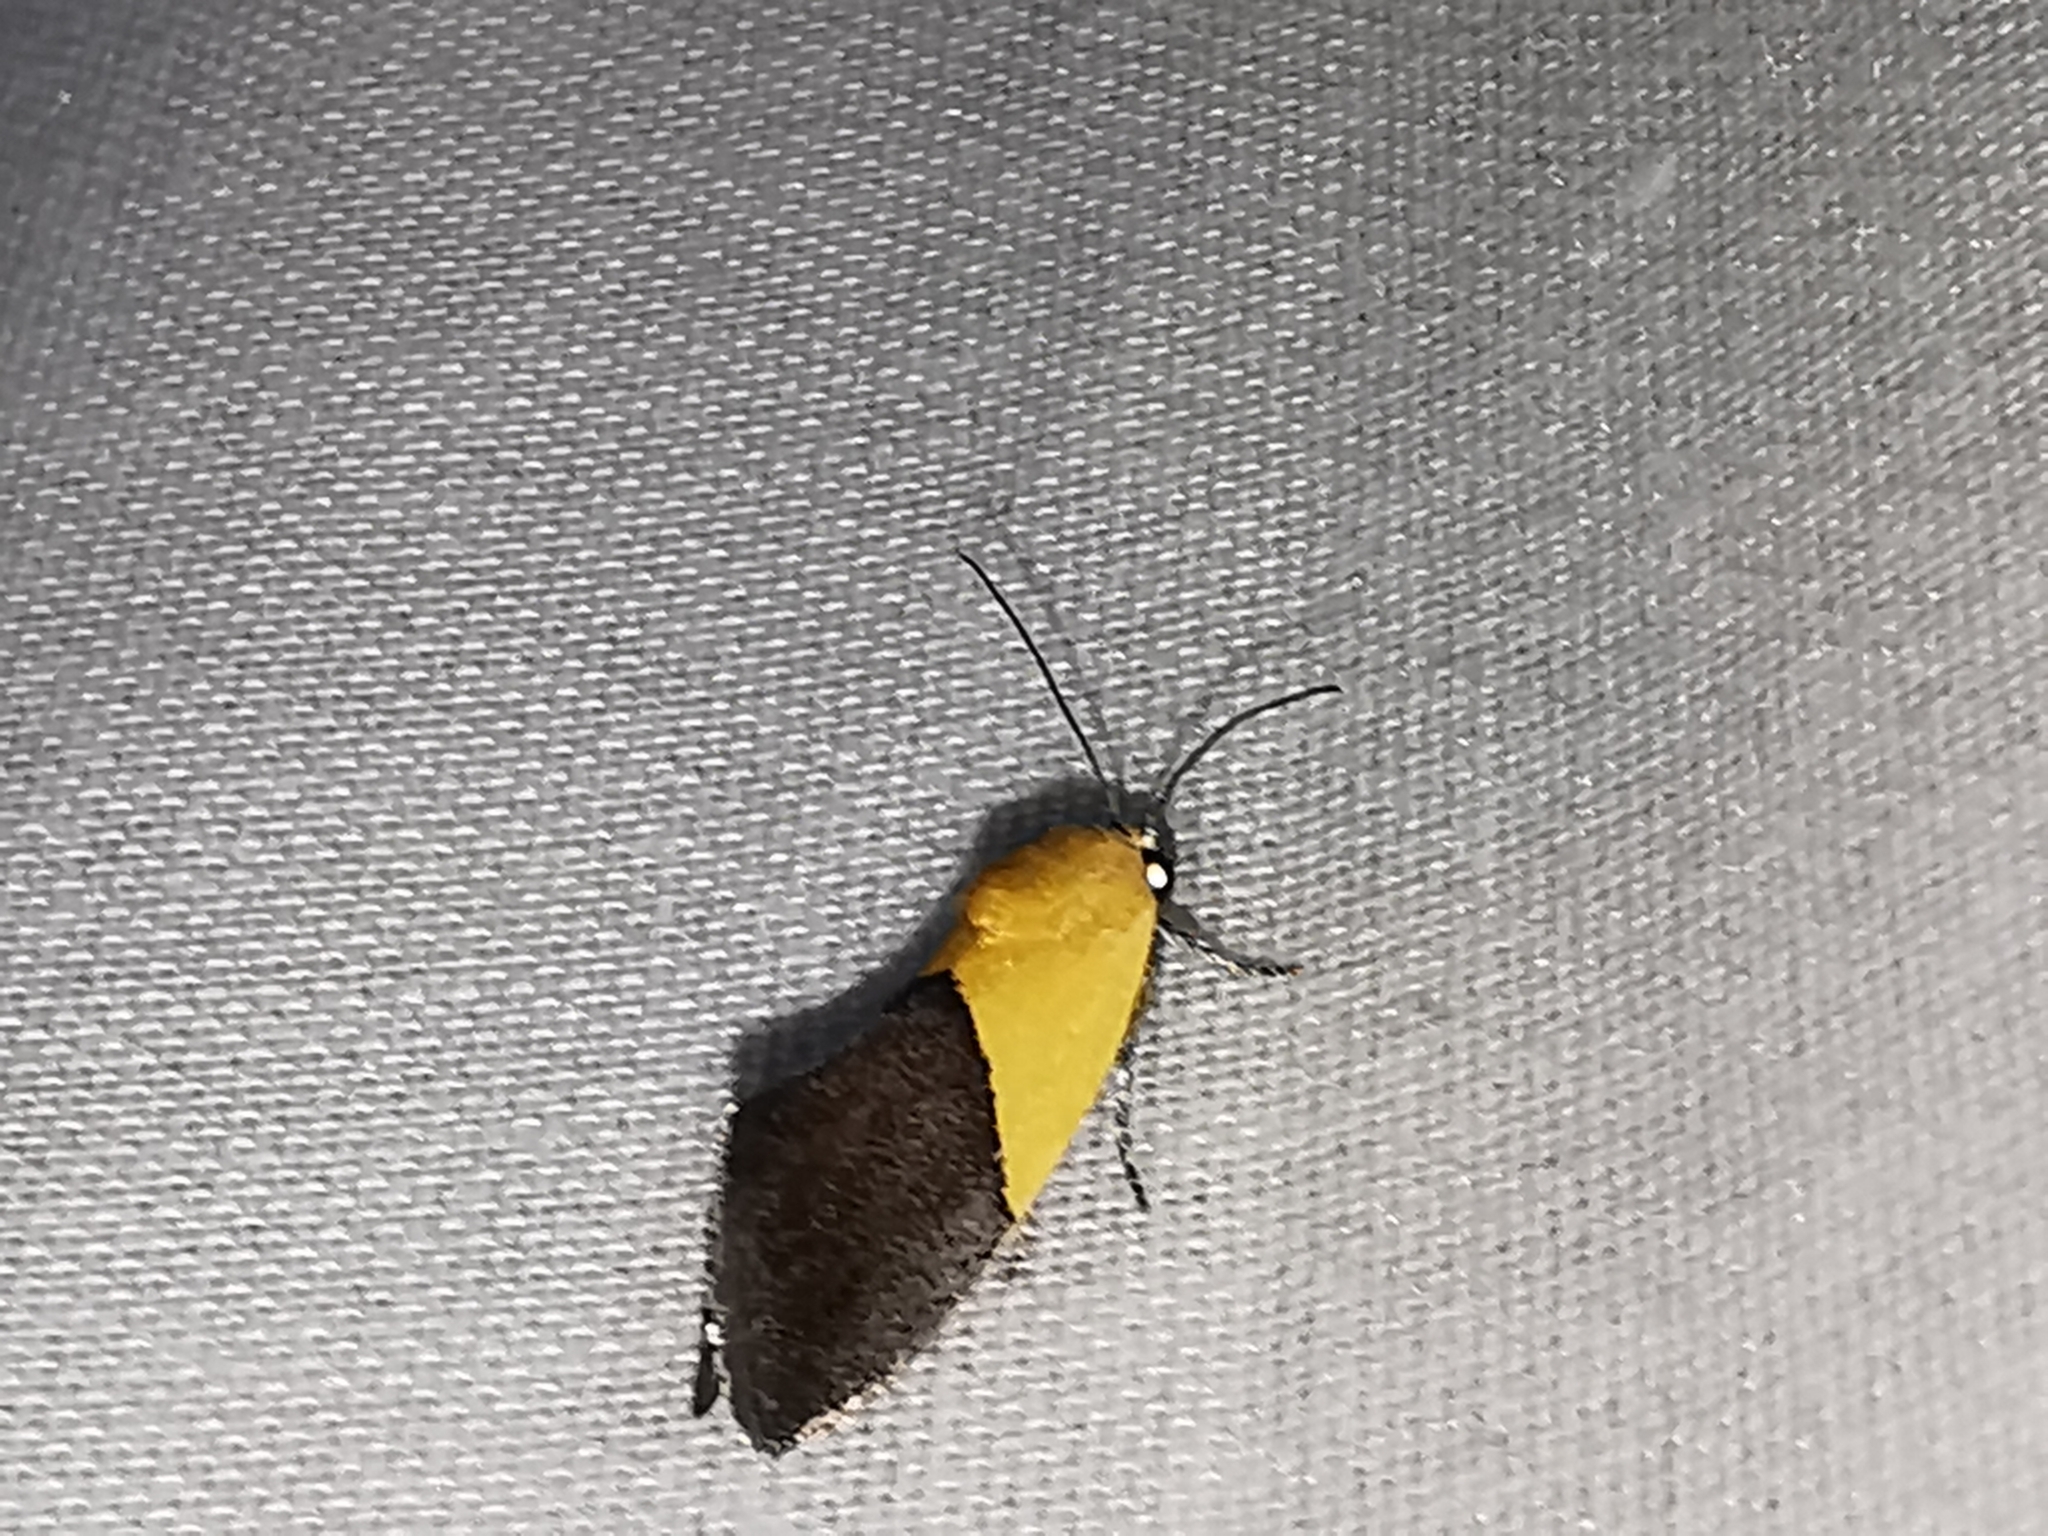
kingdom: Animalia
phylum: Arthropoda
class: Insecta
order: Lepidoptera
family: Noctuidae
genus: Acontia
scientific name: Acontia semiflava
